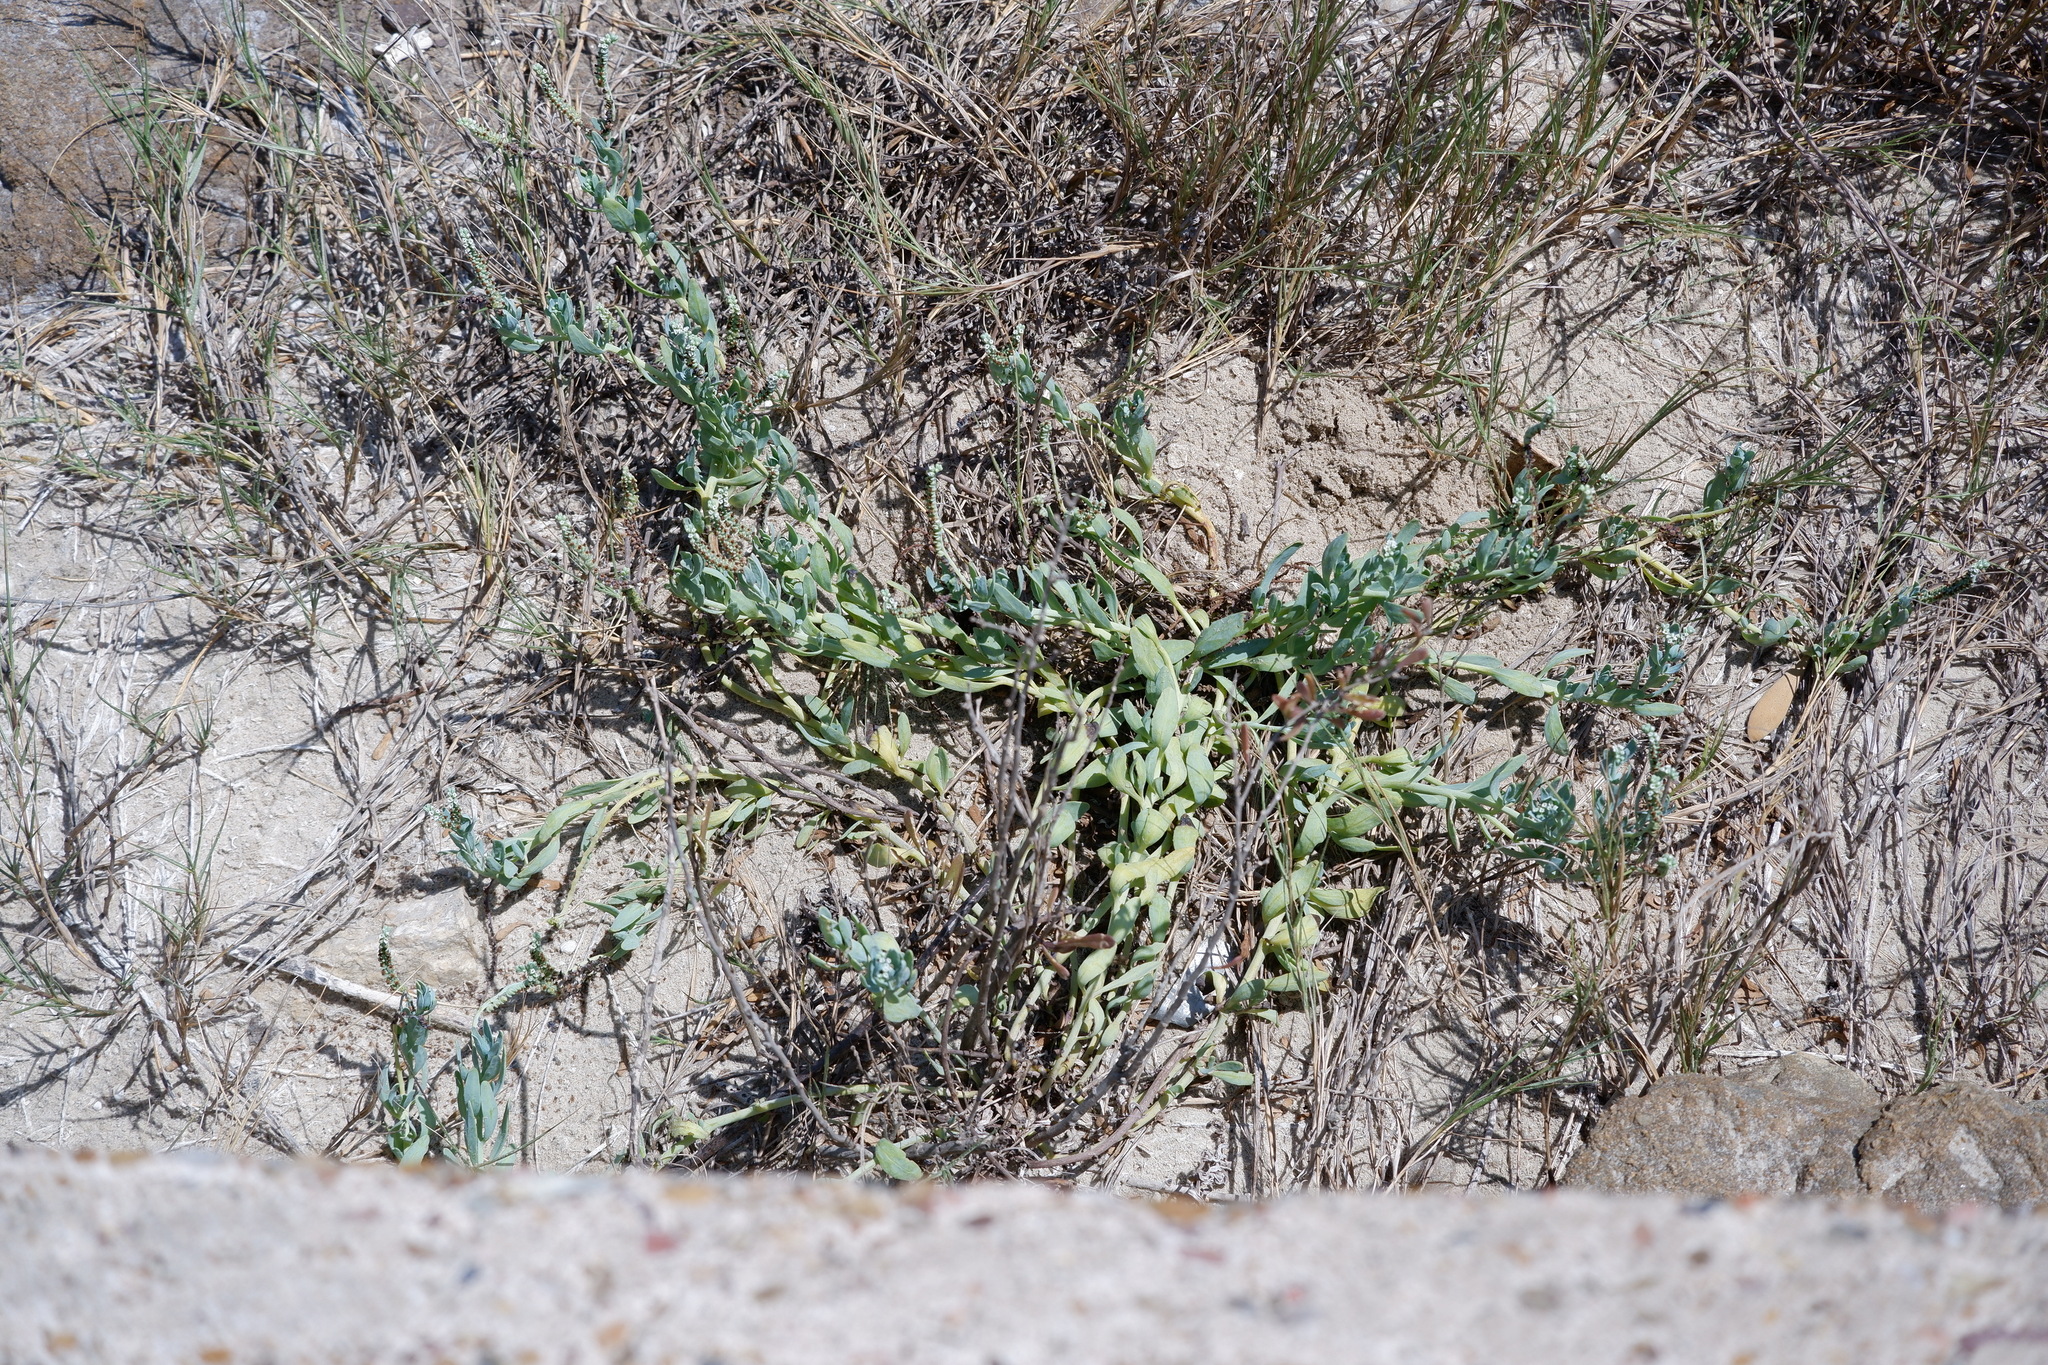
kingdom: Plantae
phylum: Tracheophyta
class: Magnoliopsida
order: Boraginales
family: Heliotropiaceae
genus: Heliotropium
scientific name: Heliotropium curassavicum
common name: Seaside heliotrope
